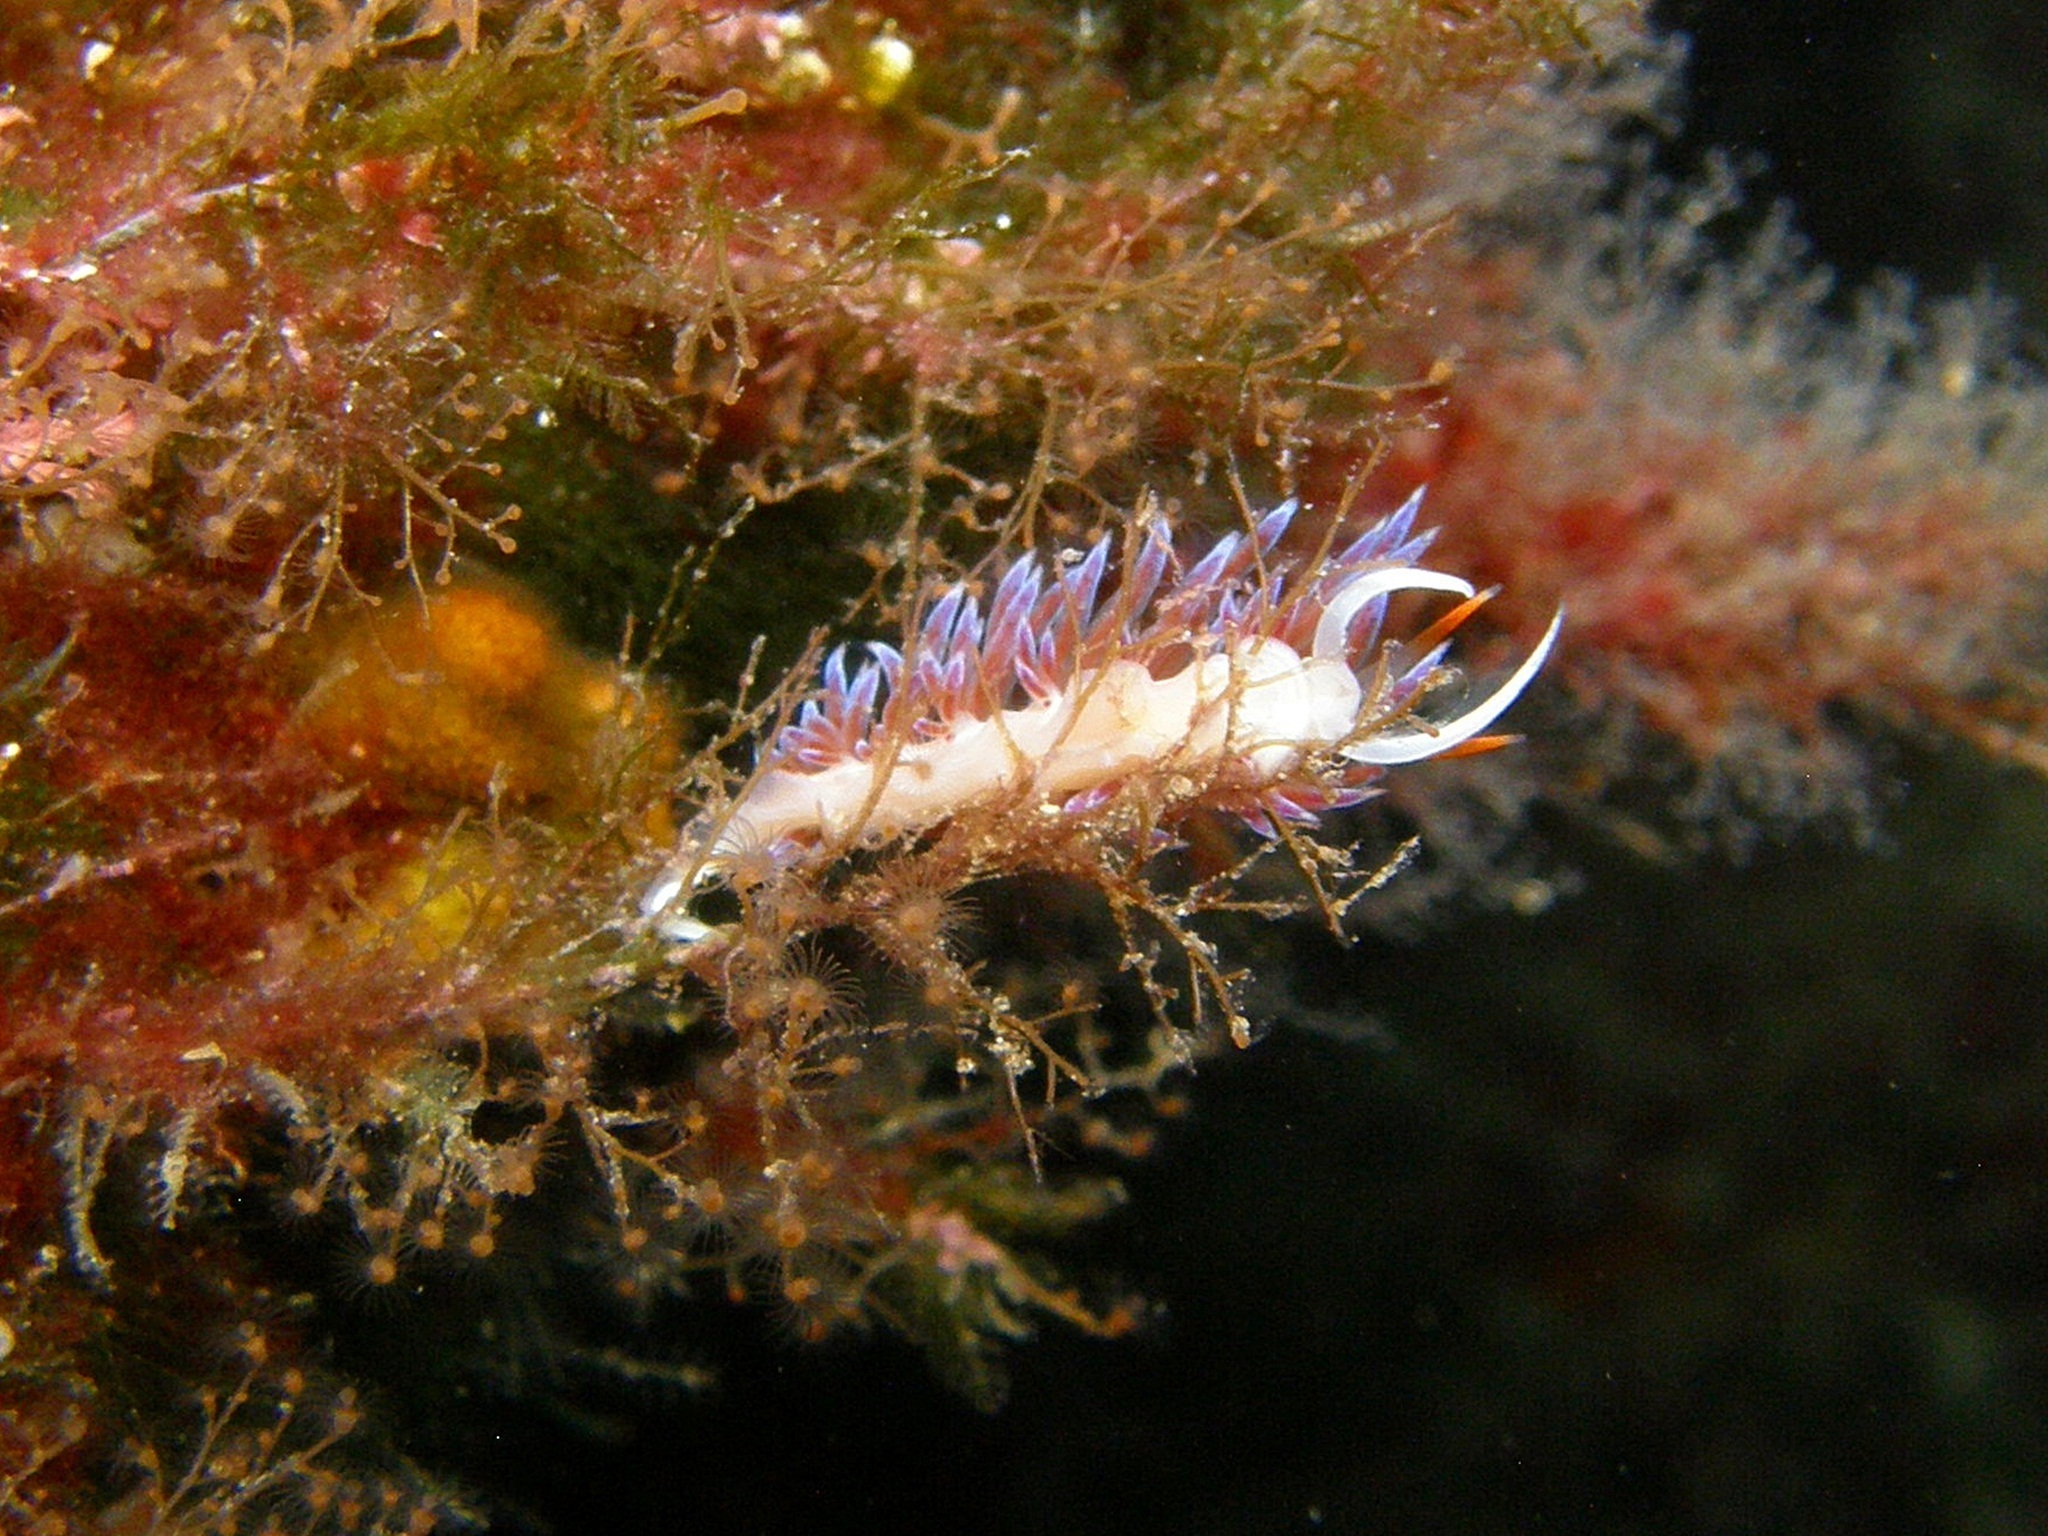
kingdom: Animalia
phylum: Mollusca
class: Gastropoda
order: Nudibranchia
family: Facelinidae
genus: Cratena
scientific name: Cratena peregrina
